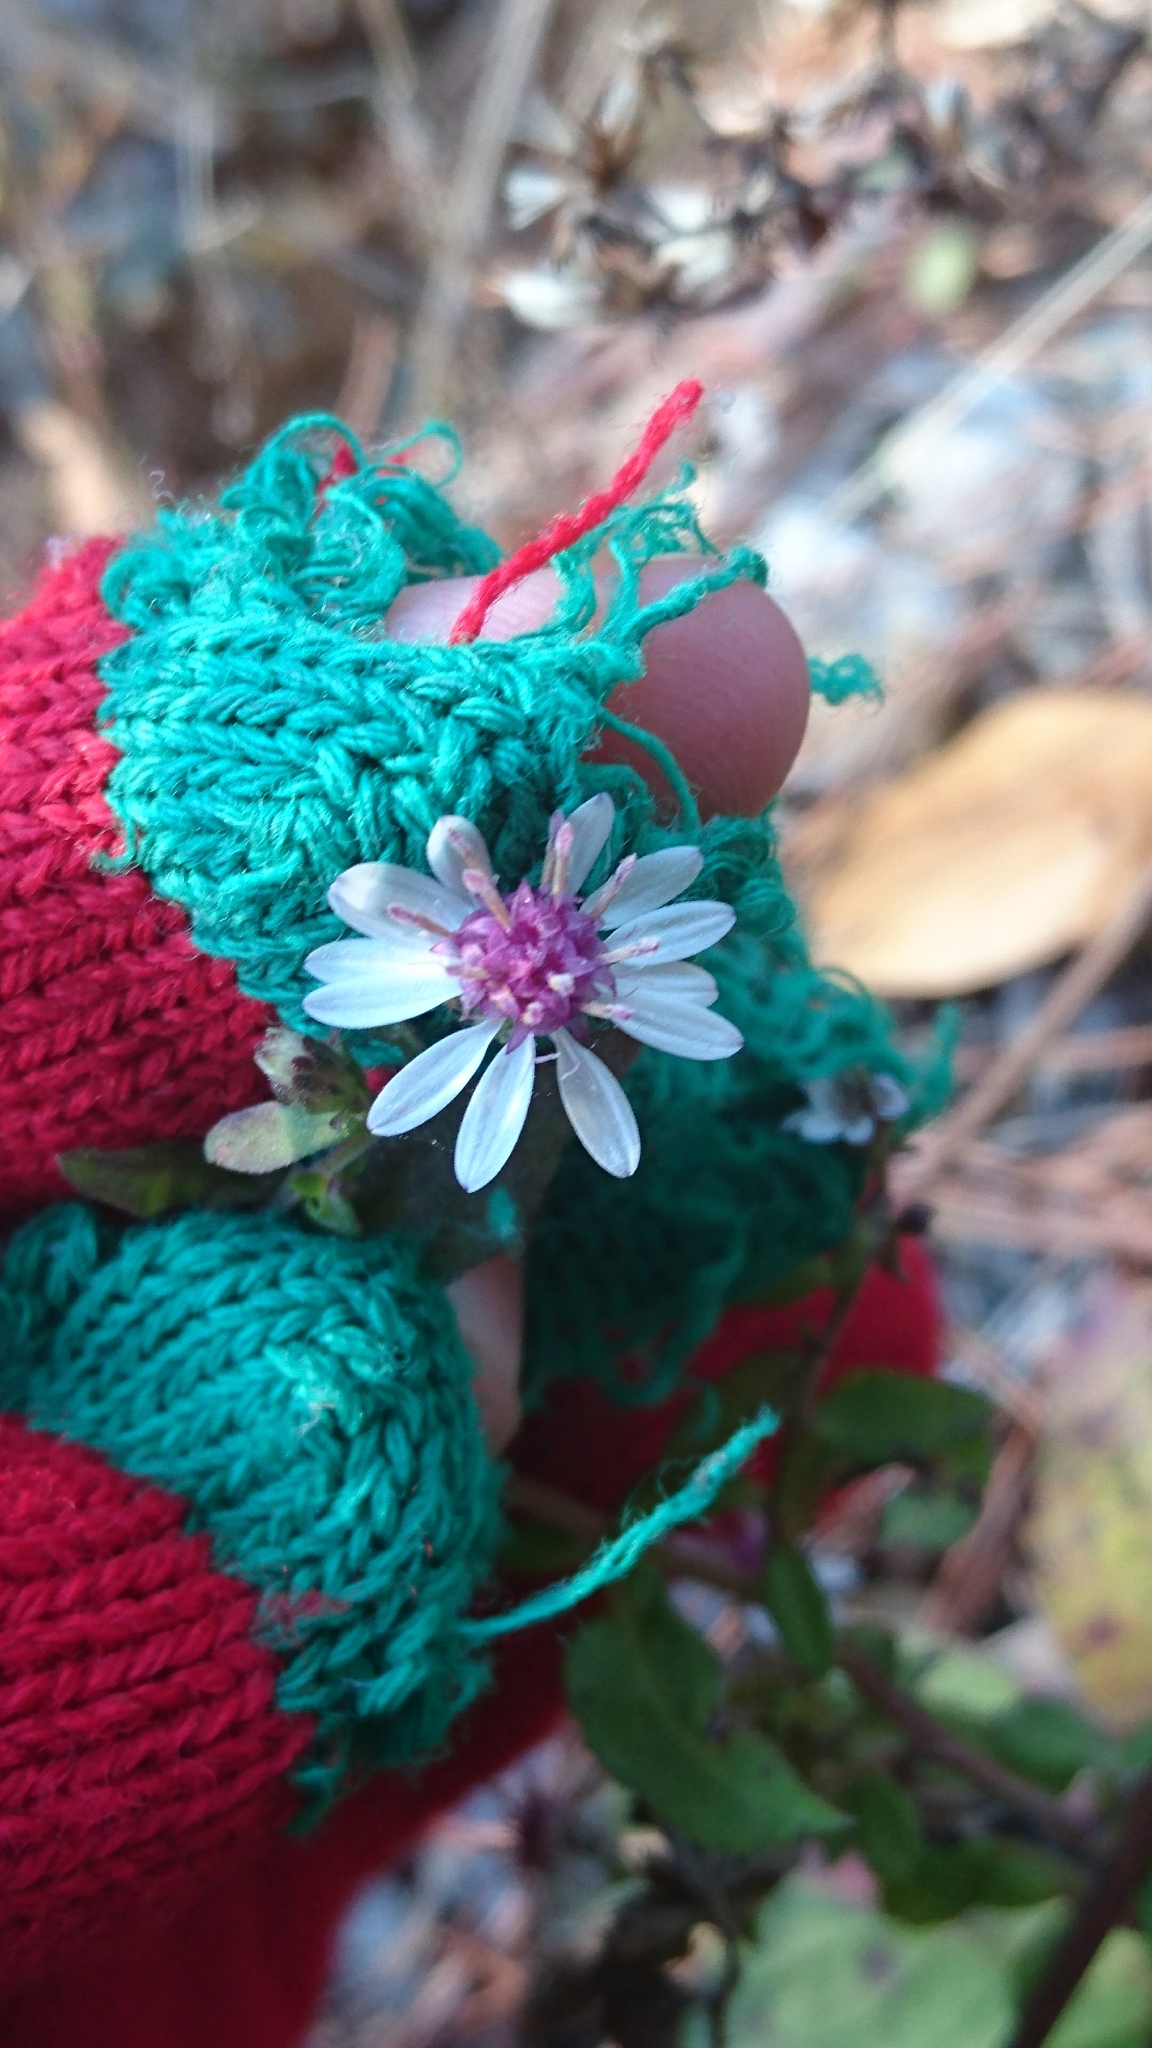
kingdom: Plantae
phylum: Tracheophyta
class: Magnoliopsida
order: Asterales
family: Asteraceae
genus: Symphyotrichum
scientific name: Symphyotrichum lateriflorum
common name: Calico aster
